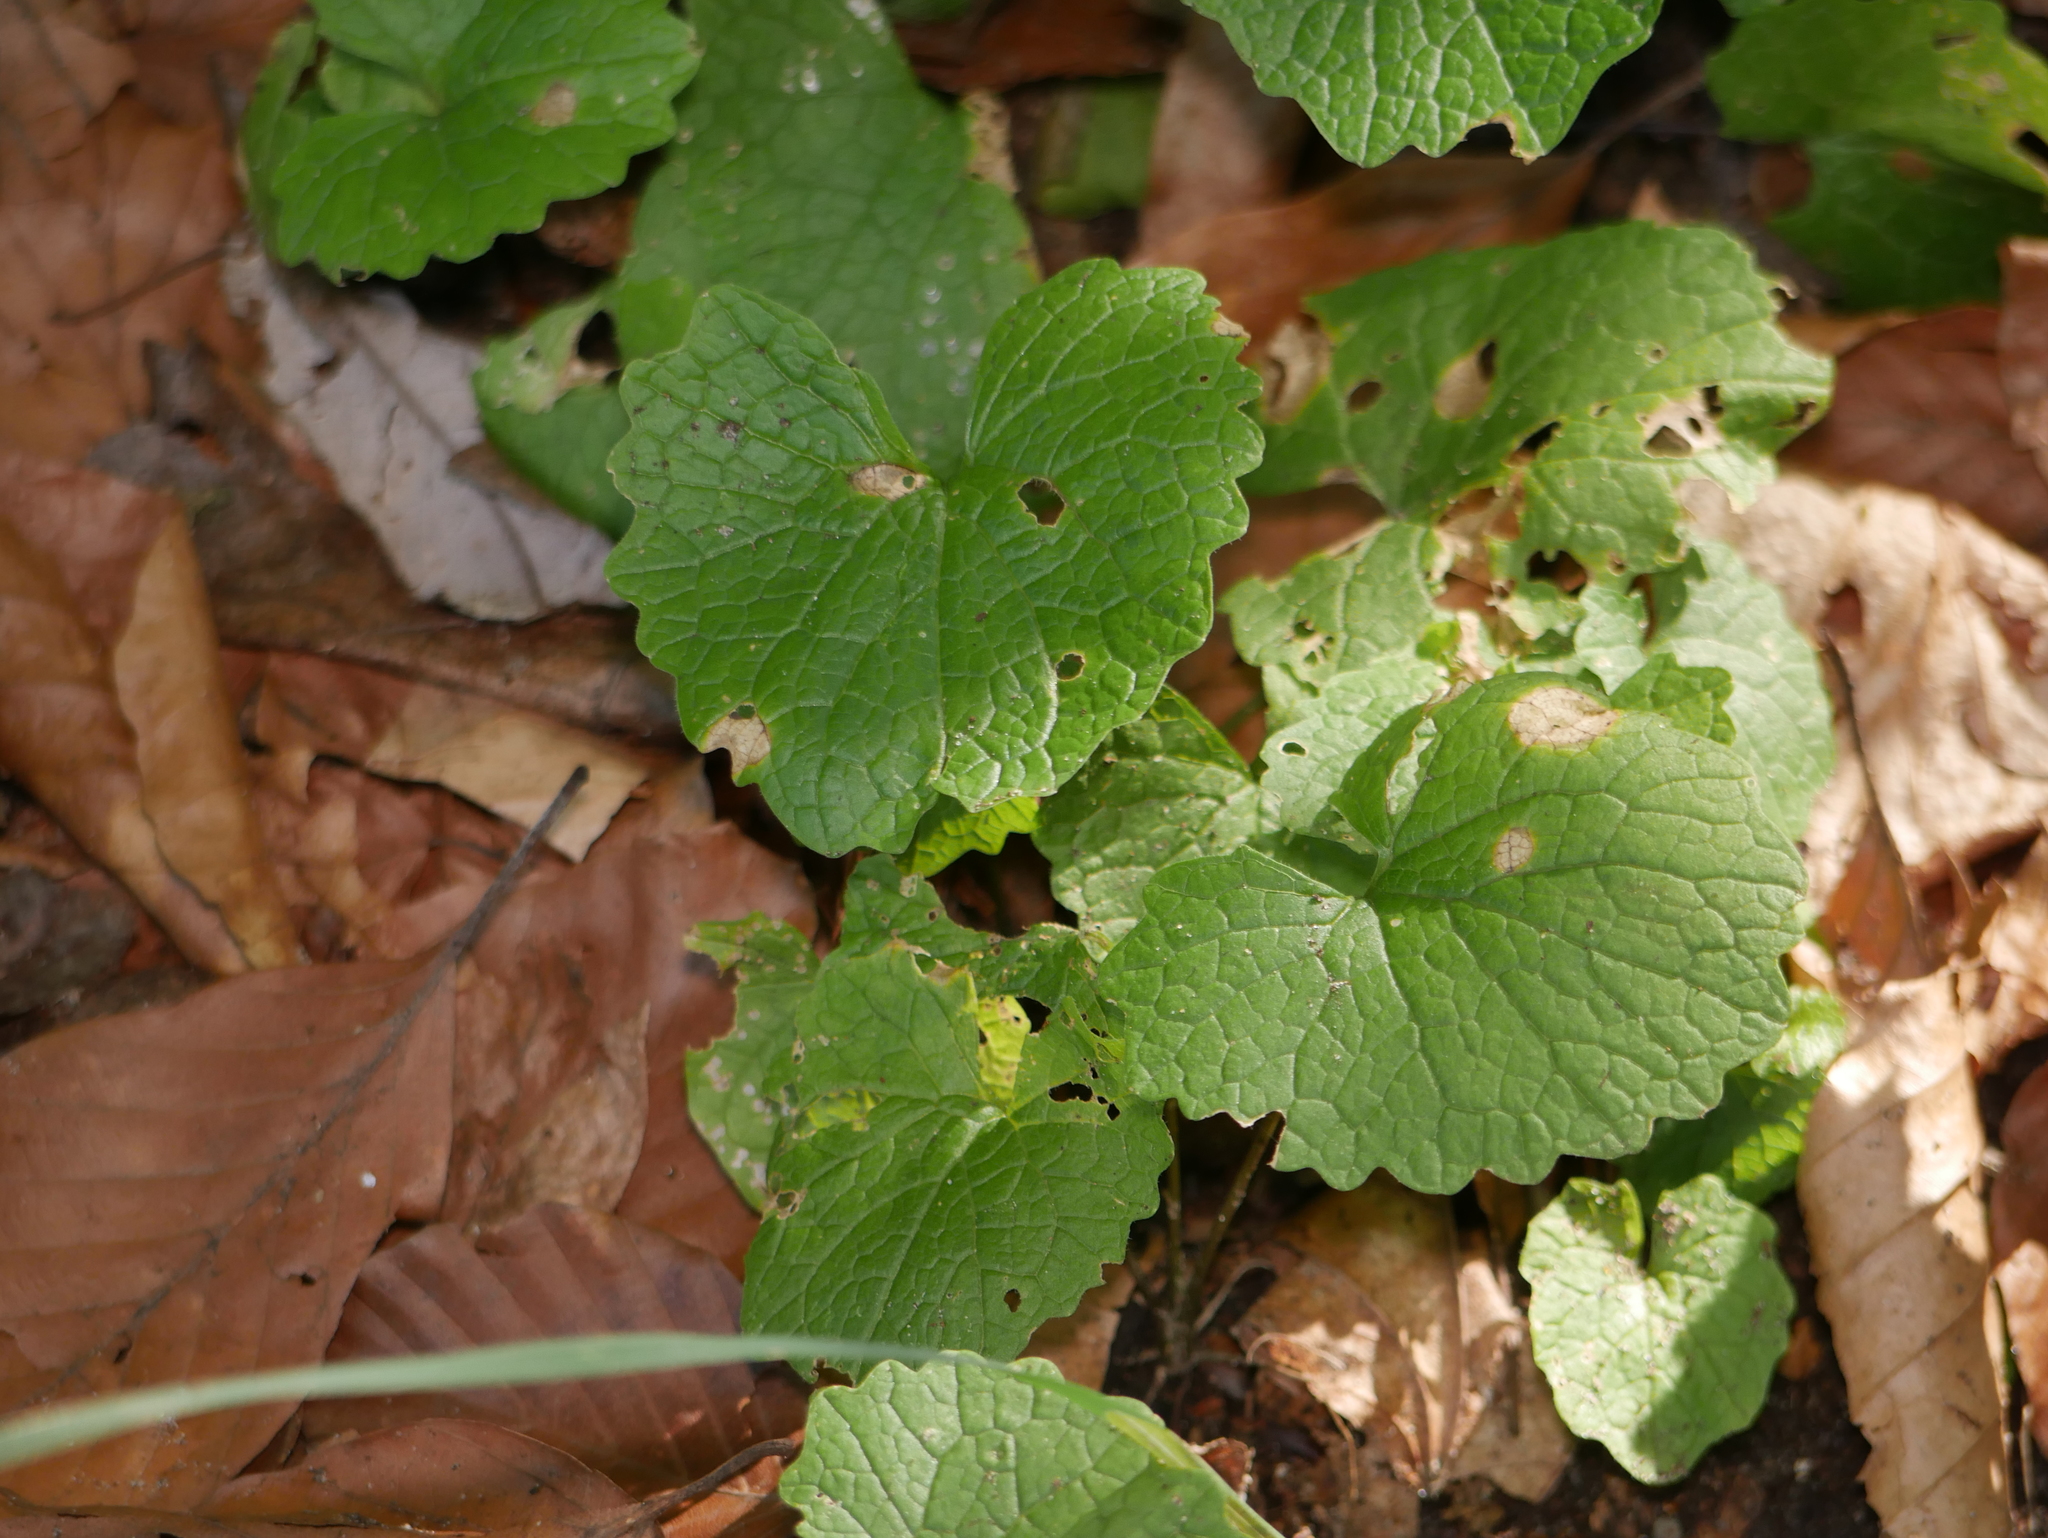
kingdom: Plantae
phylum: Tracheophyta
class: Magnoliopsida
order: Brassicales
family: Brassicaceae
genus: Alliaria
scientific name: Alliaria petiolata
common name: Garlic mustard
